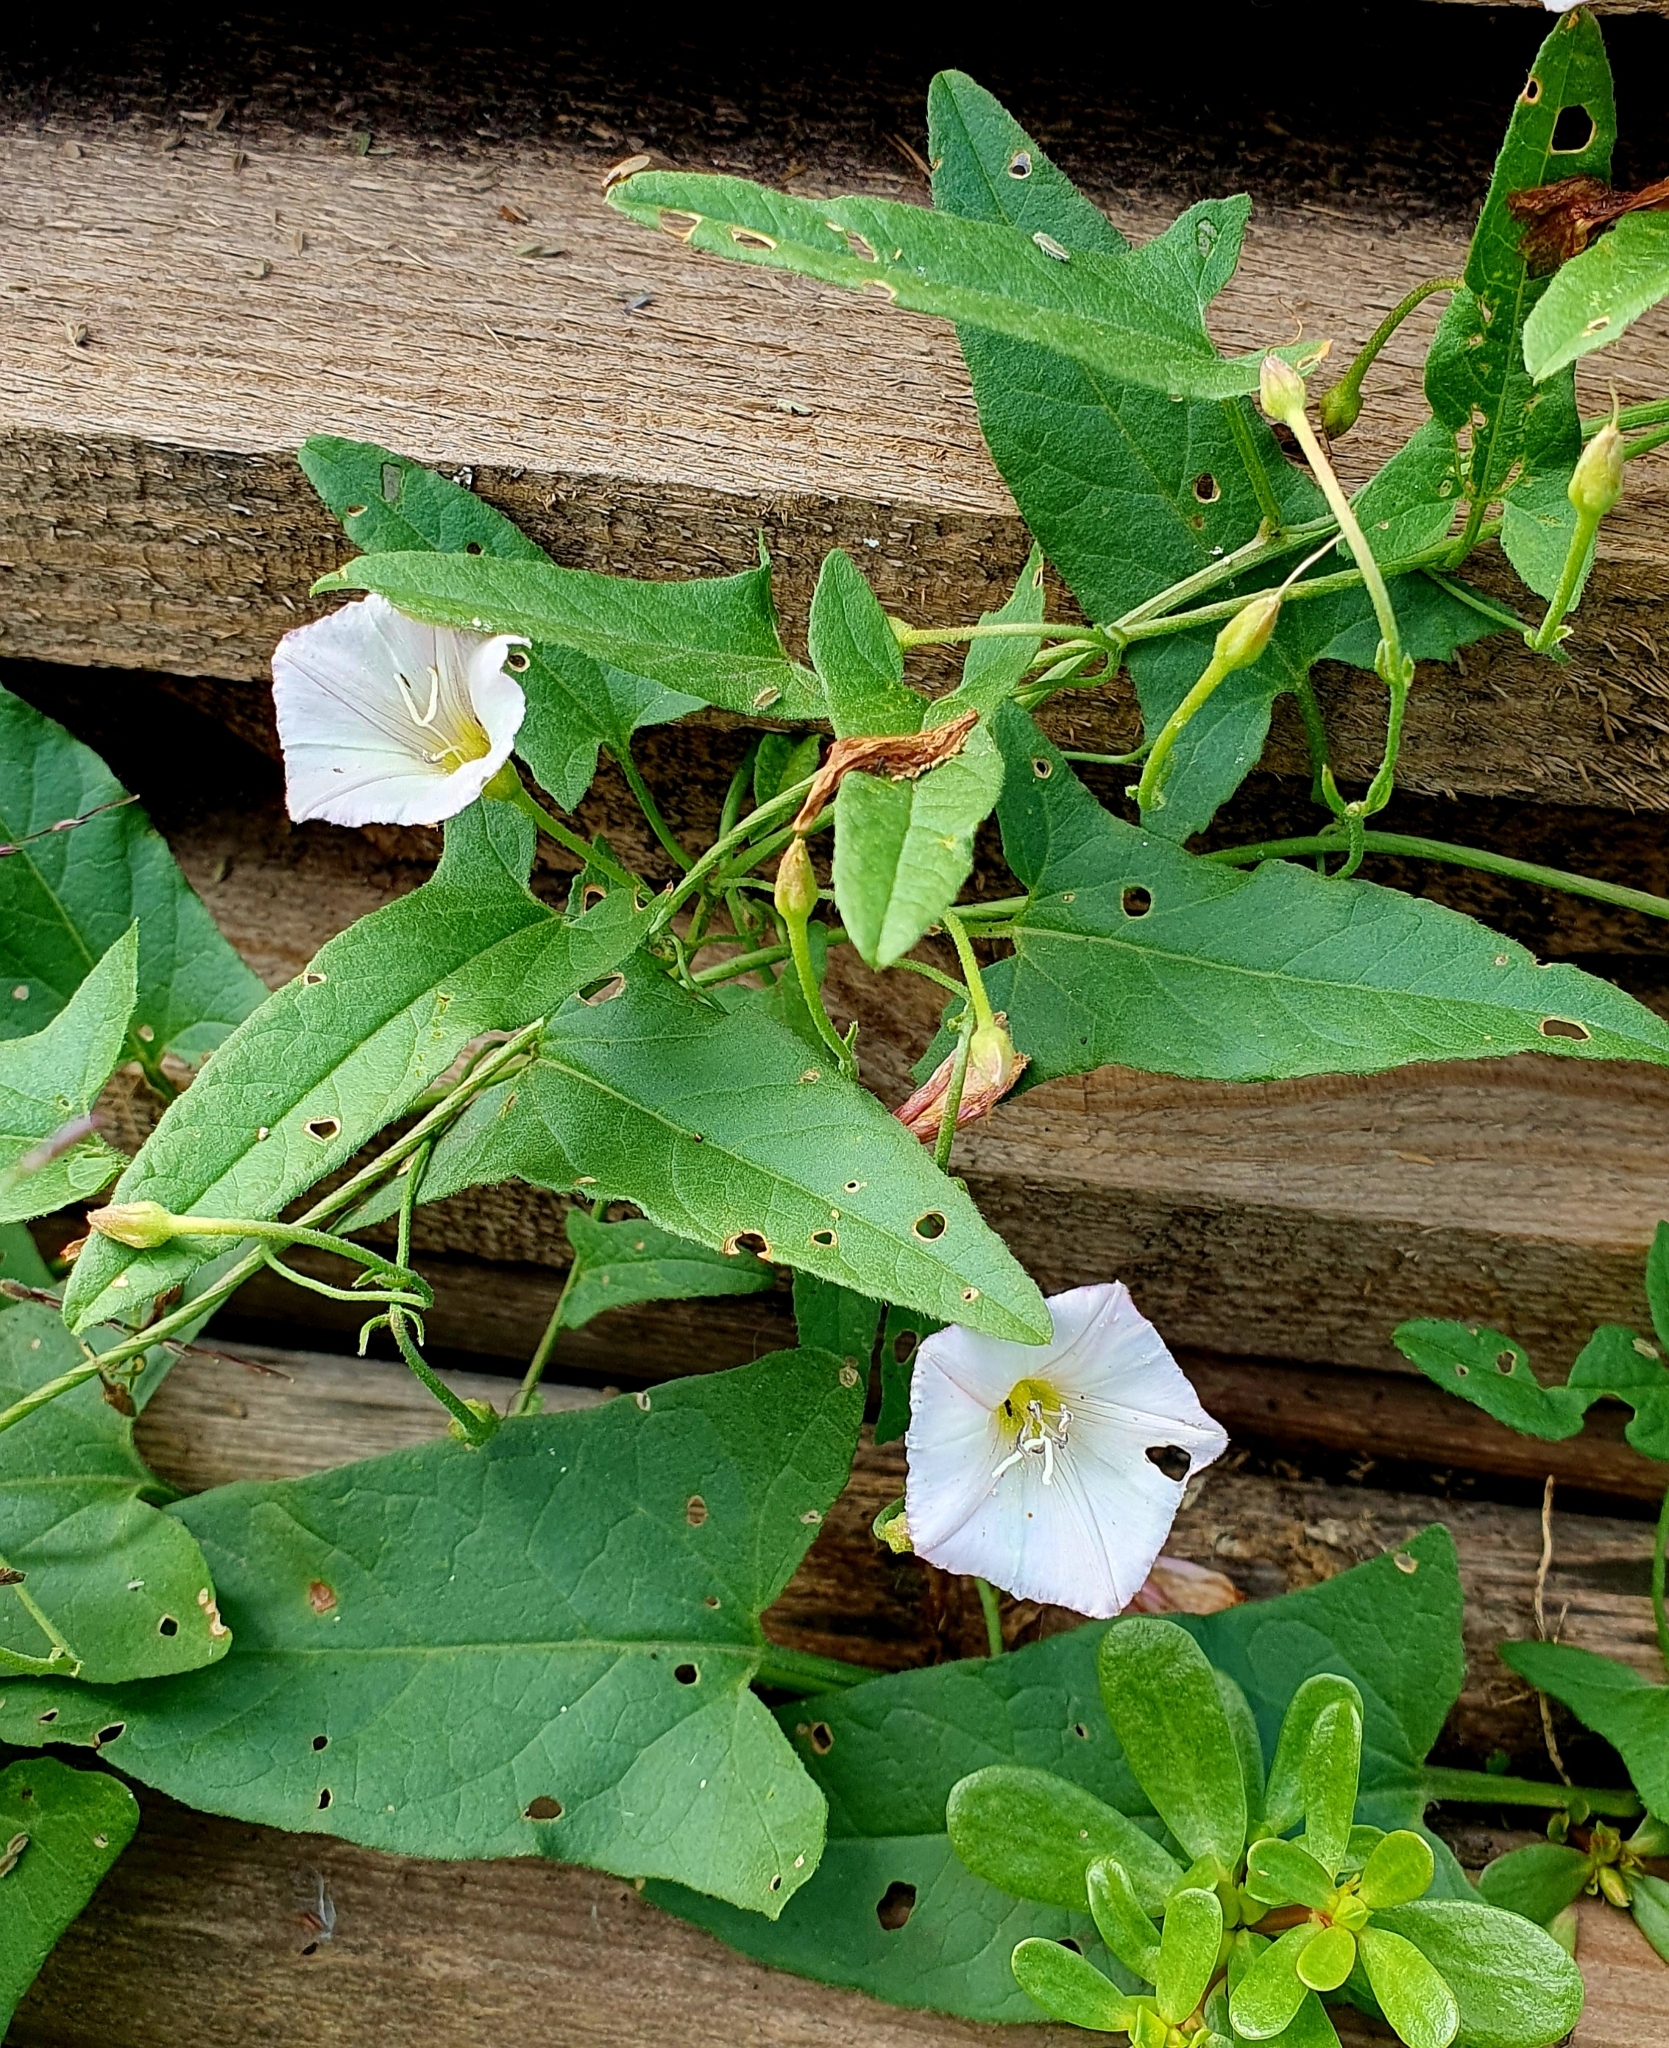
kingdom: Plantae
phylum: Tracheophyta
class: Magnoliopsida
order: Solanales
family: Convolvulaceae
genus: Convolvulus
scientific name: Convolvulus arvensis
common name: Field bindweed
